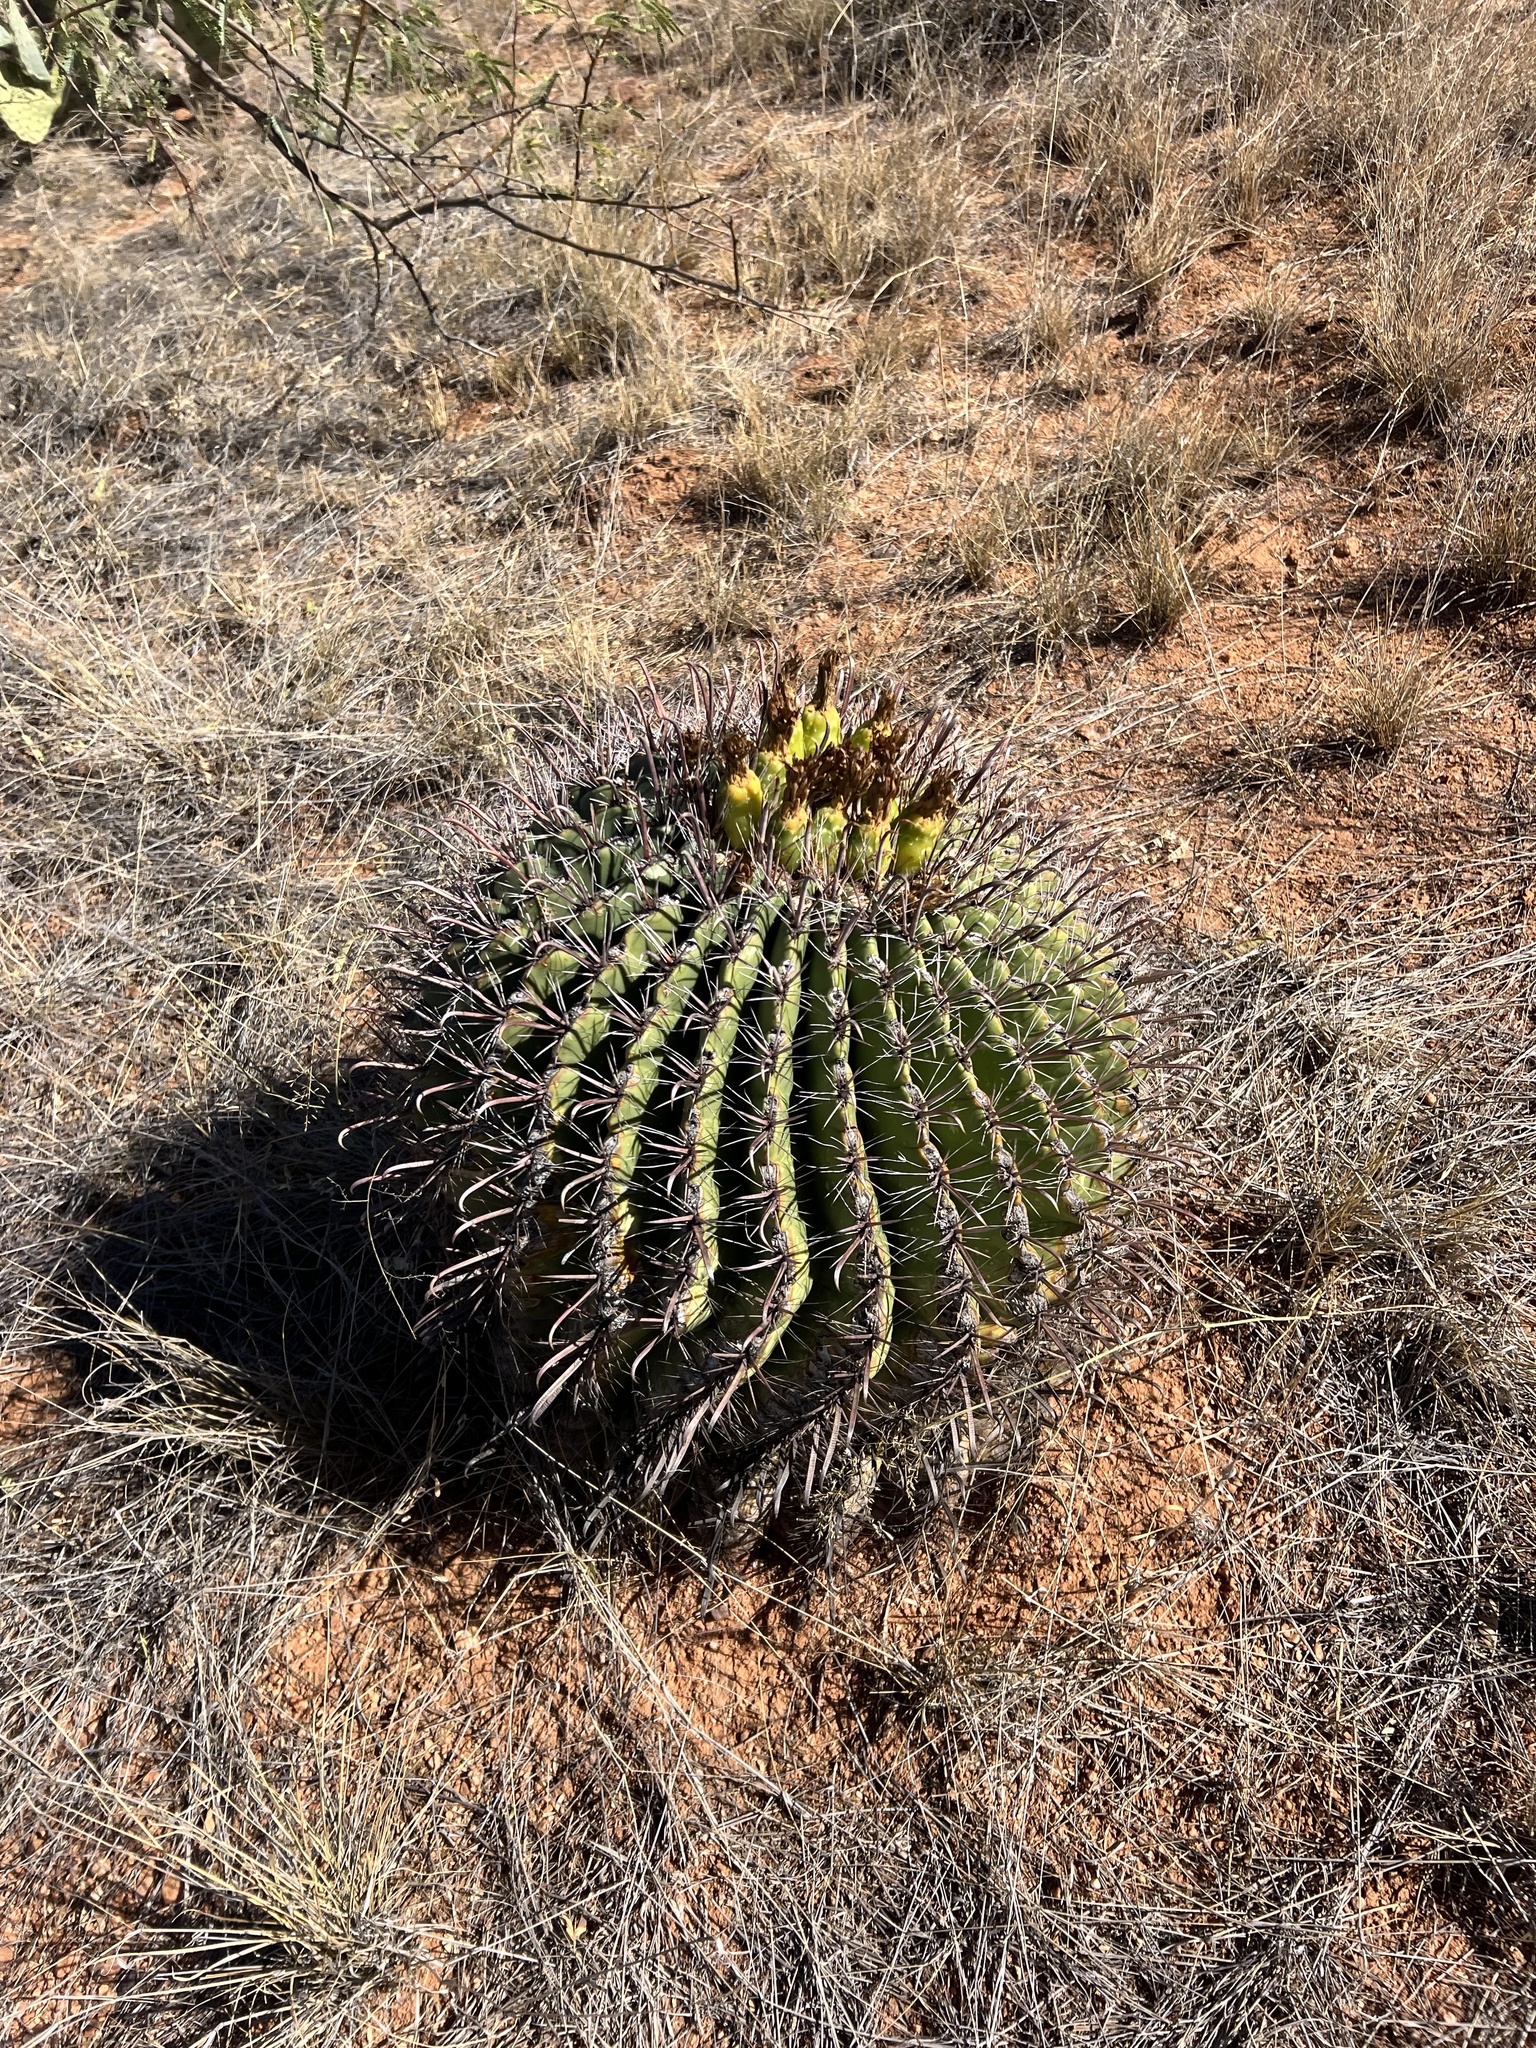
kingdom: Plantae
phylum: Tracheophyta
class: Magnoliopsida
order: Caryophyllales
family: Cactaceae
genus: Ferocactus
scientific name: Ferocactus wislizeni
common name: Candy barrel cactus
